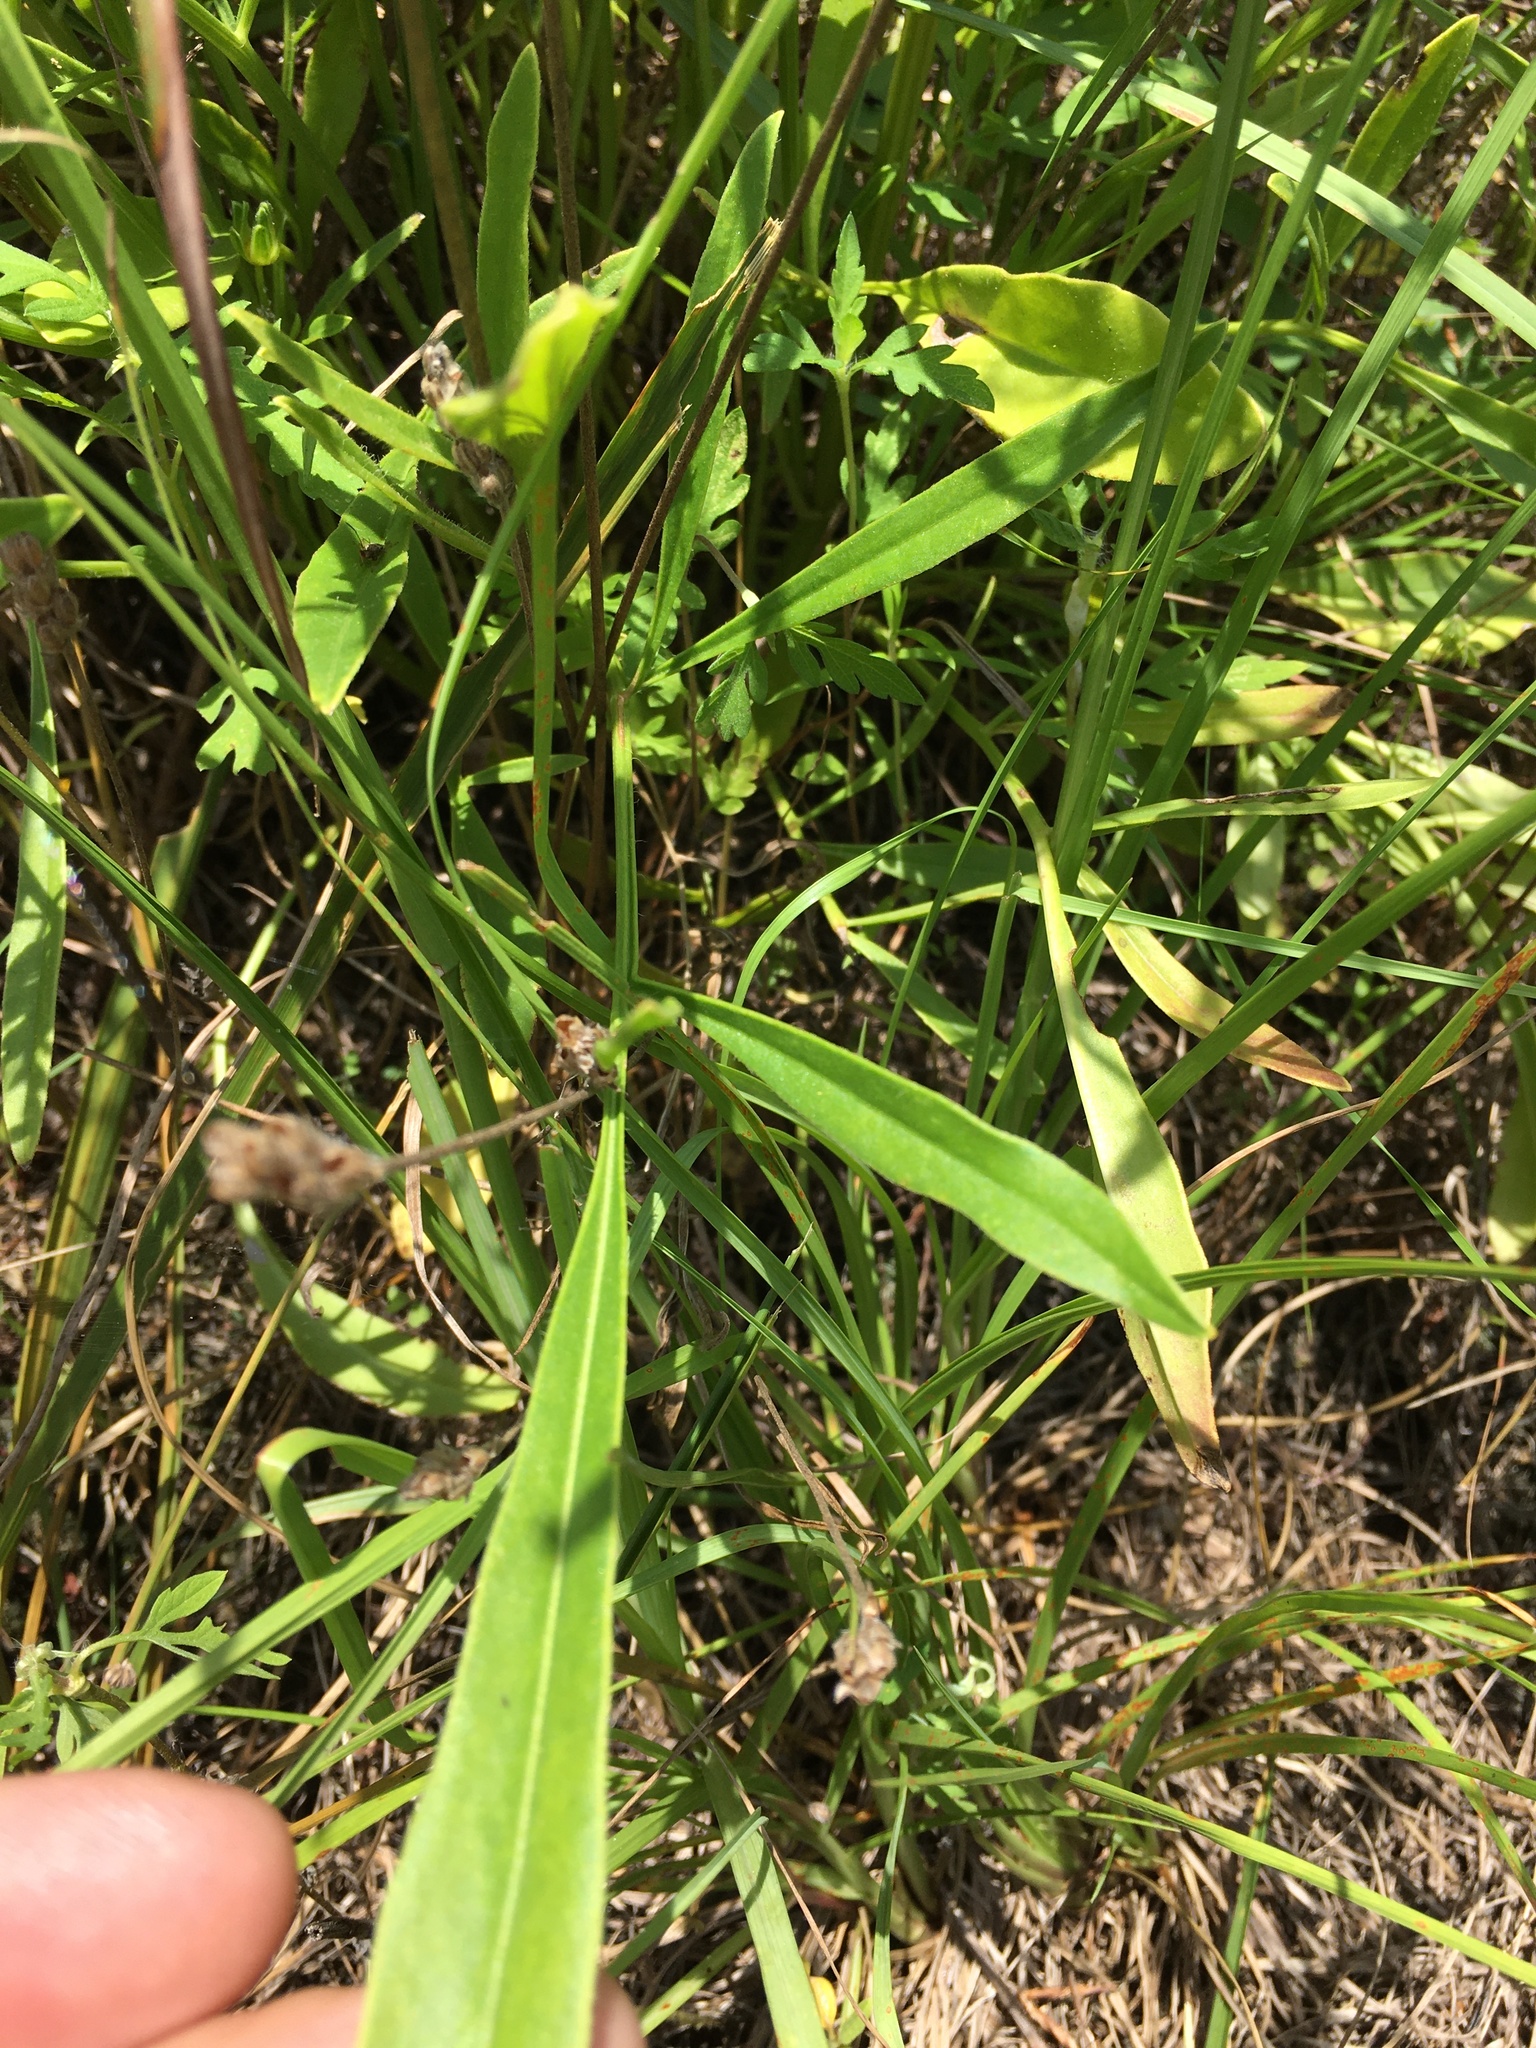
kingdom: Plantae
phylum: Tracheophyta
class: Magnoliopsida
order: Asterales
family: Asteraceae
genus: Coreopsis
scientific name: Coreopsis lanceolata
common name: Garden coreopsis
